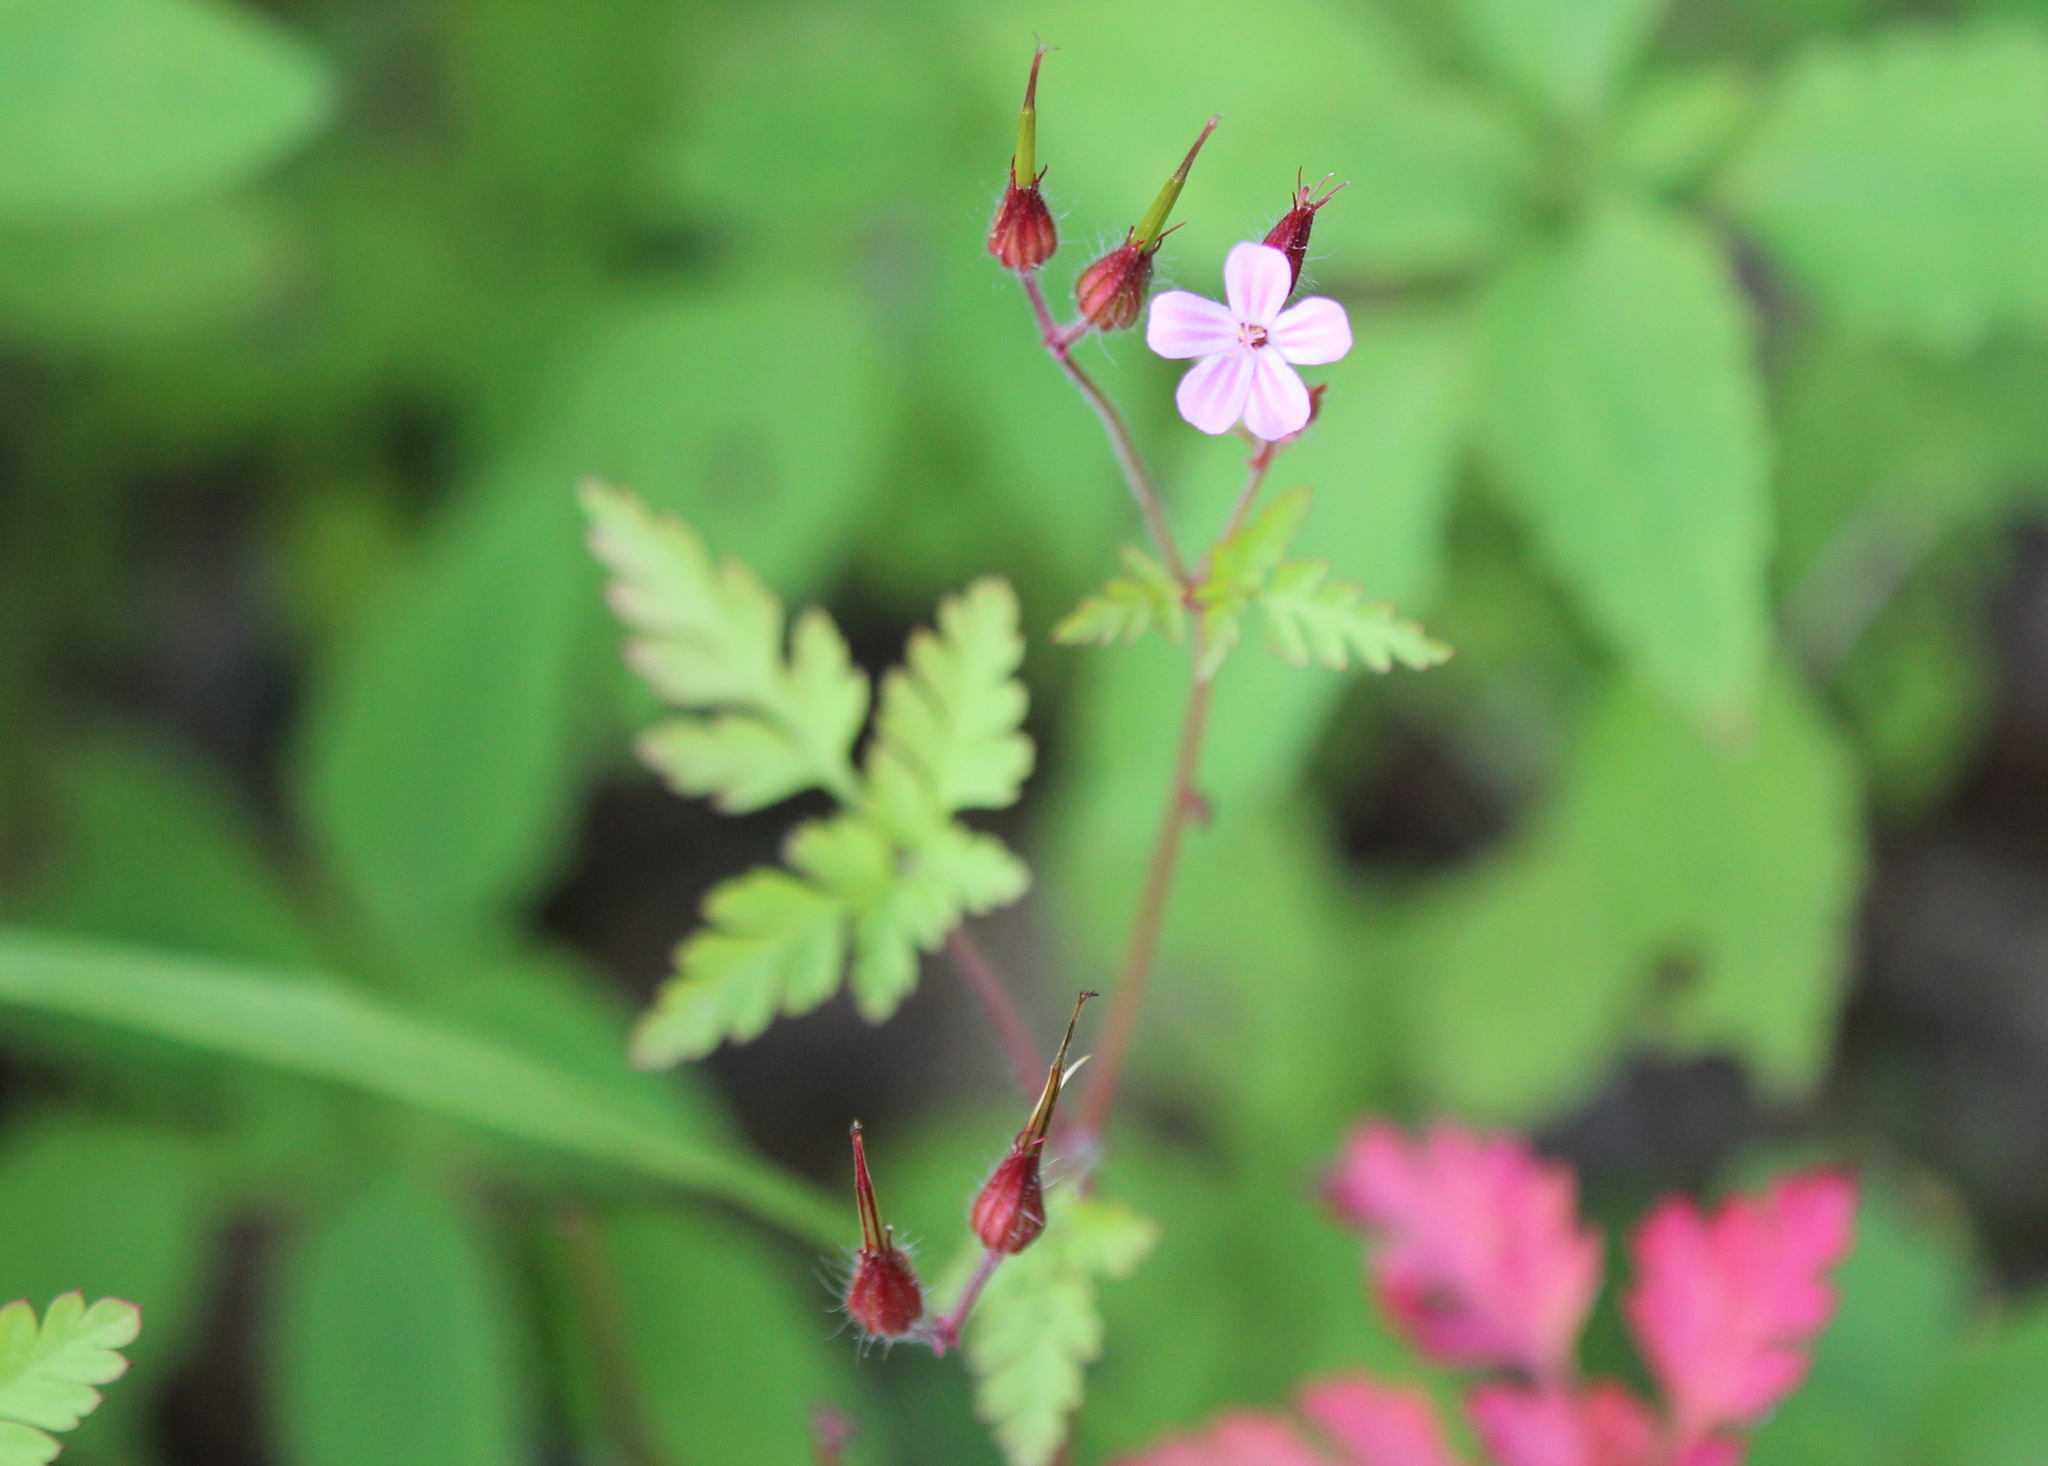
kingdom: Plantae
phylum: Tracheophyta
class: Magnoliopsida
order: Geraniales
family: Geraniaceae
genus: Geranium
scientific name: Geranium robertianum
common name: Herb-robert
